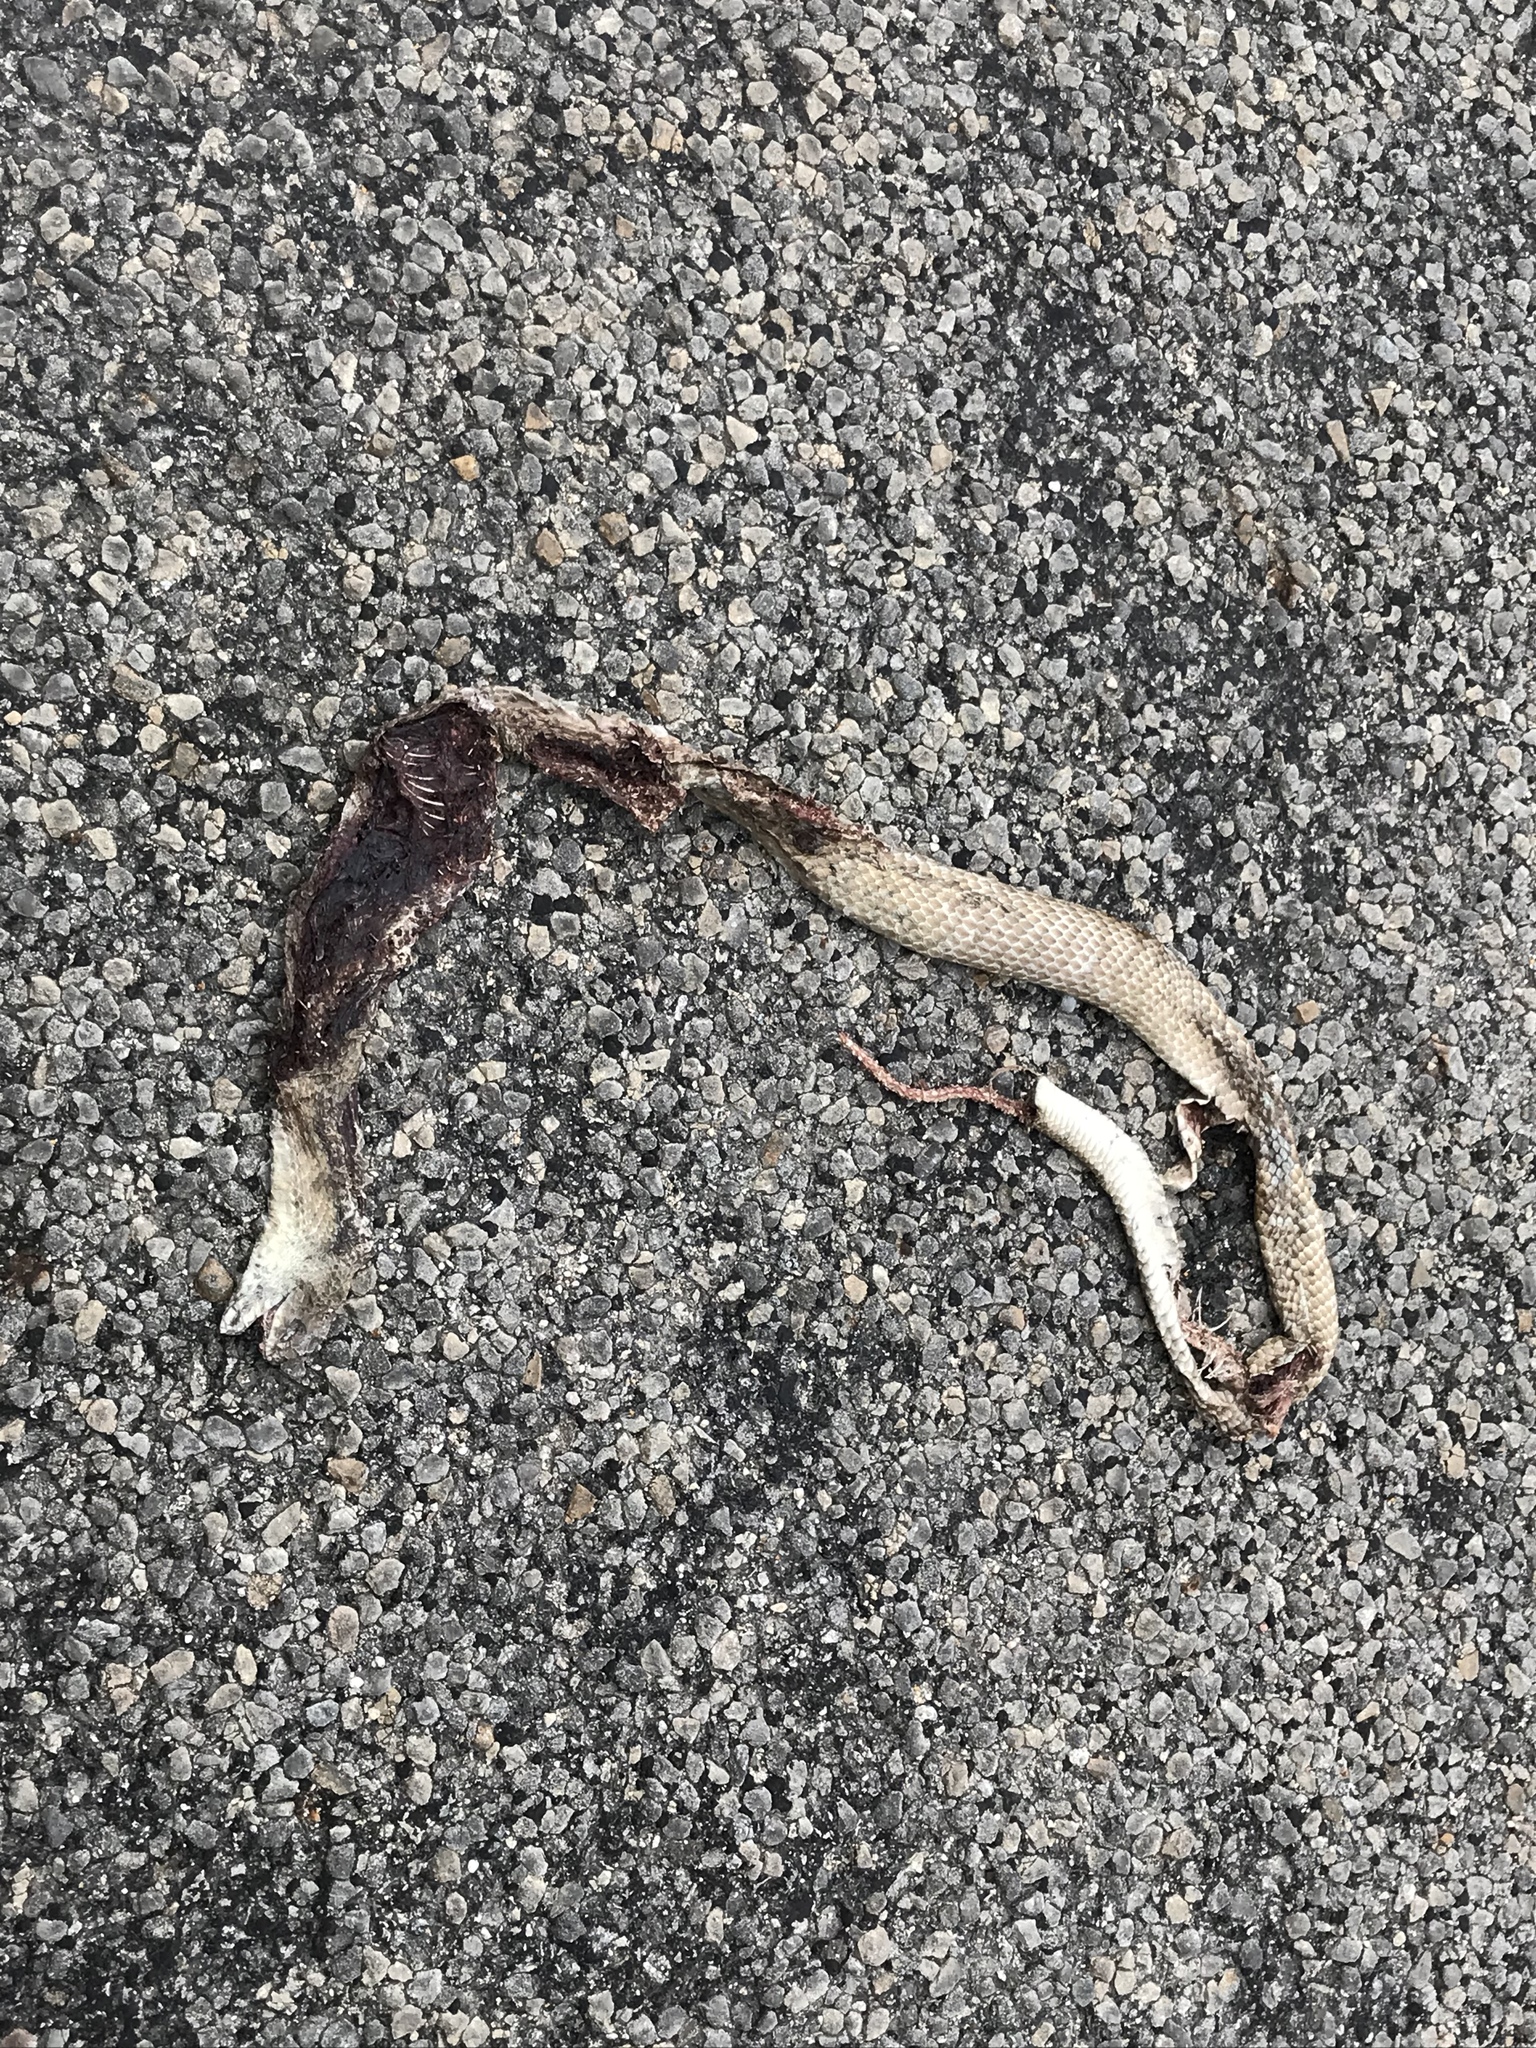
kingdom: Animalia
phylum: Chordata
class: Squamata
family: Colubridae
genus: Masticophis
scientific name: Masticophis flagellum
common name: Coachwhip
